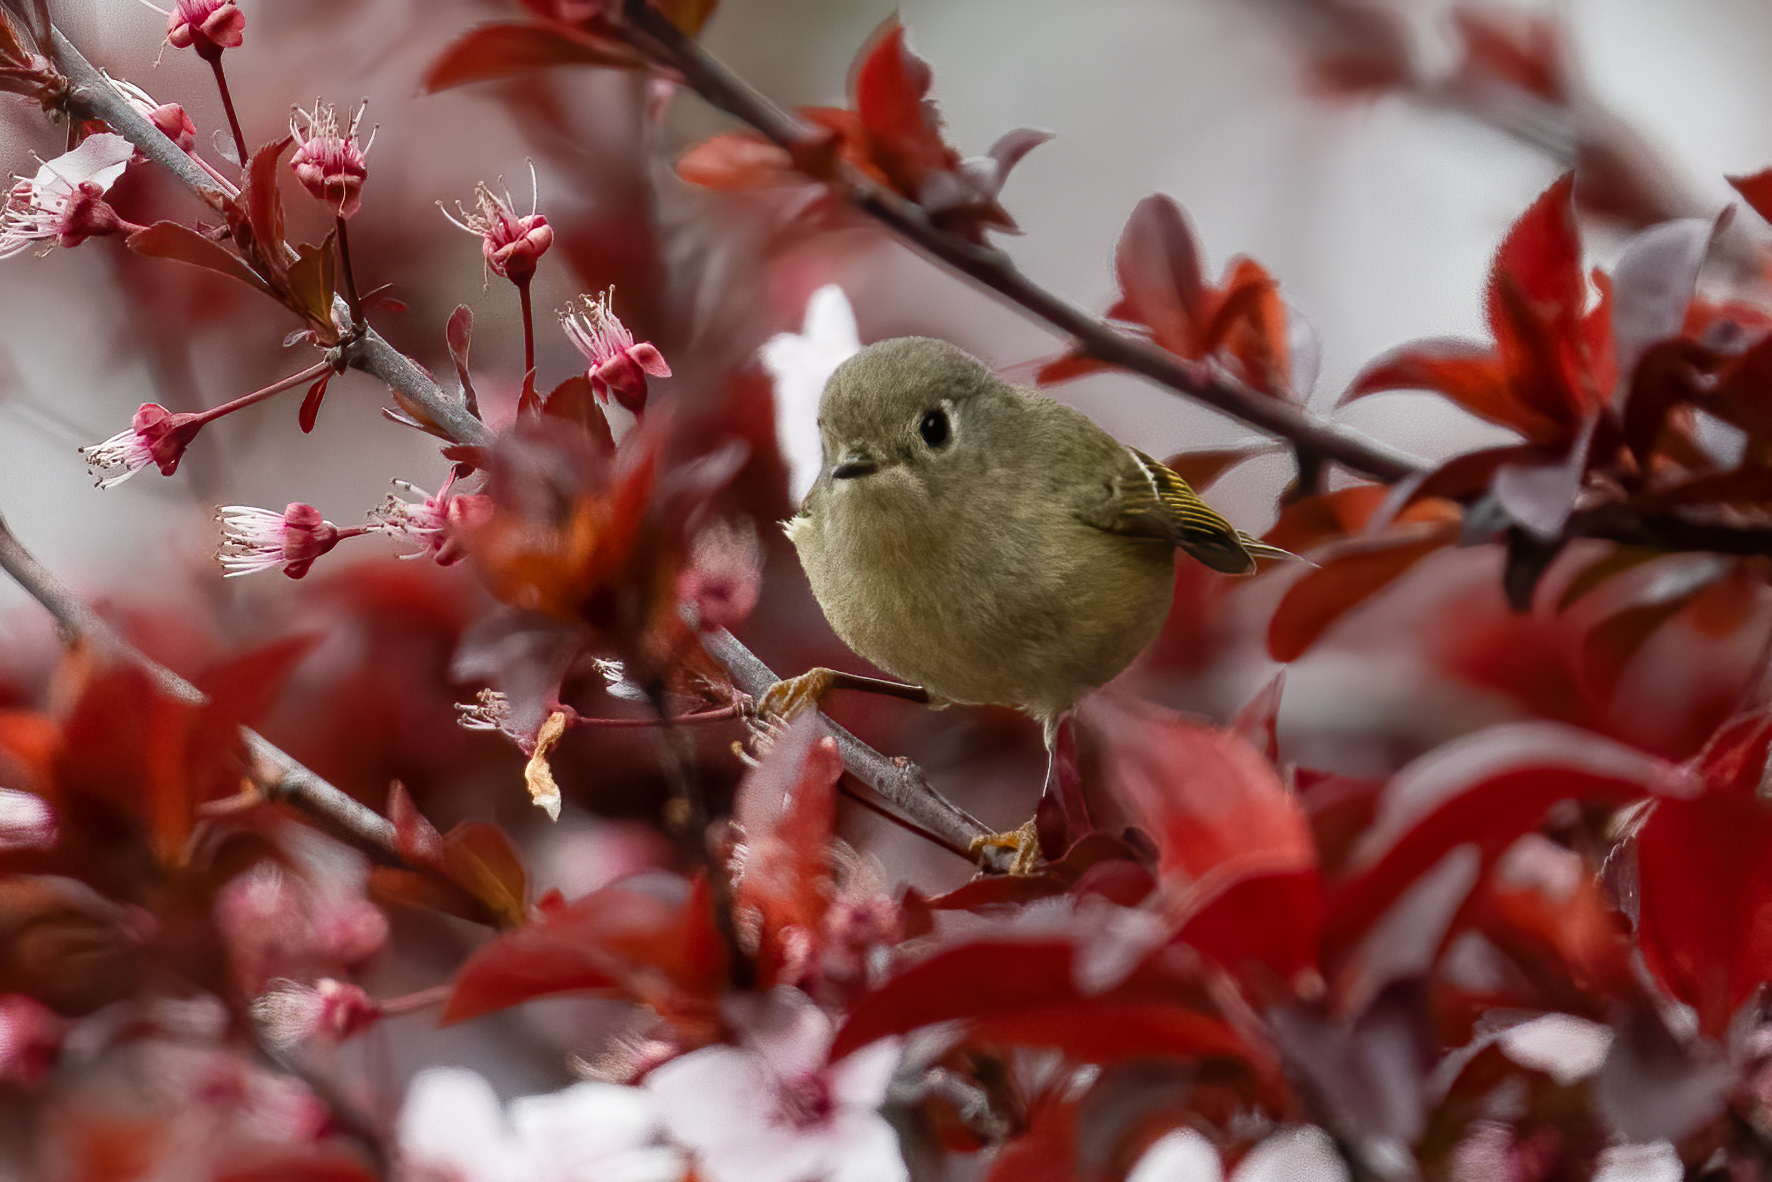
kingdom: Animalia
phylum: Chordata
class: Aves
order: Passeriformes
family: Regulidae
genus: Regulus
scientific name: Regulus calendula
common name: Ruby-crowned kinglet
